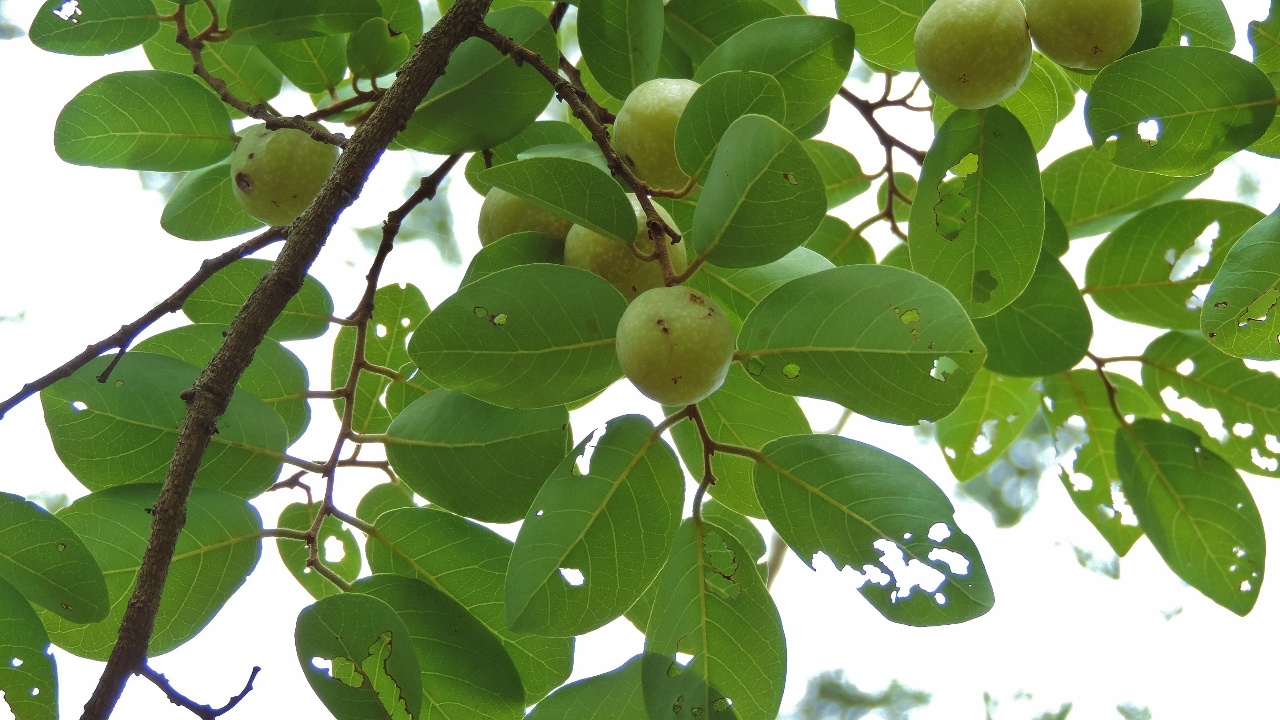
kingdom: Plantae
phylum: Tracheophyta
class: Magnoliopsida
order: Malpighiales
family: Phyllanthaceae
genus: Pseudolachnostylis
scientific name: Pseudolachnostylis maprouneifolia
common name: Kudu berry
